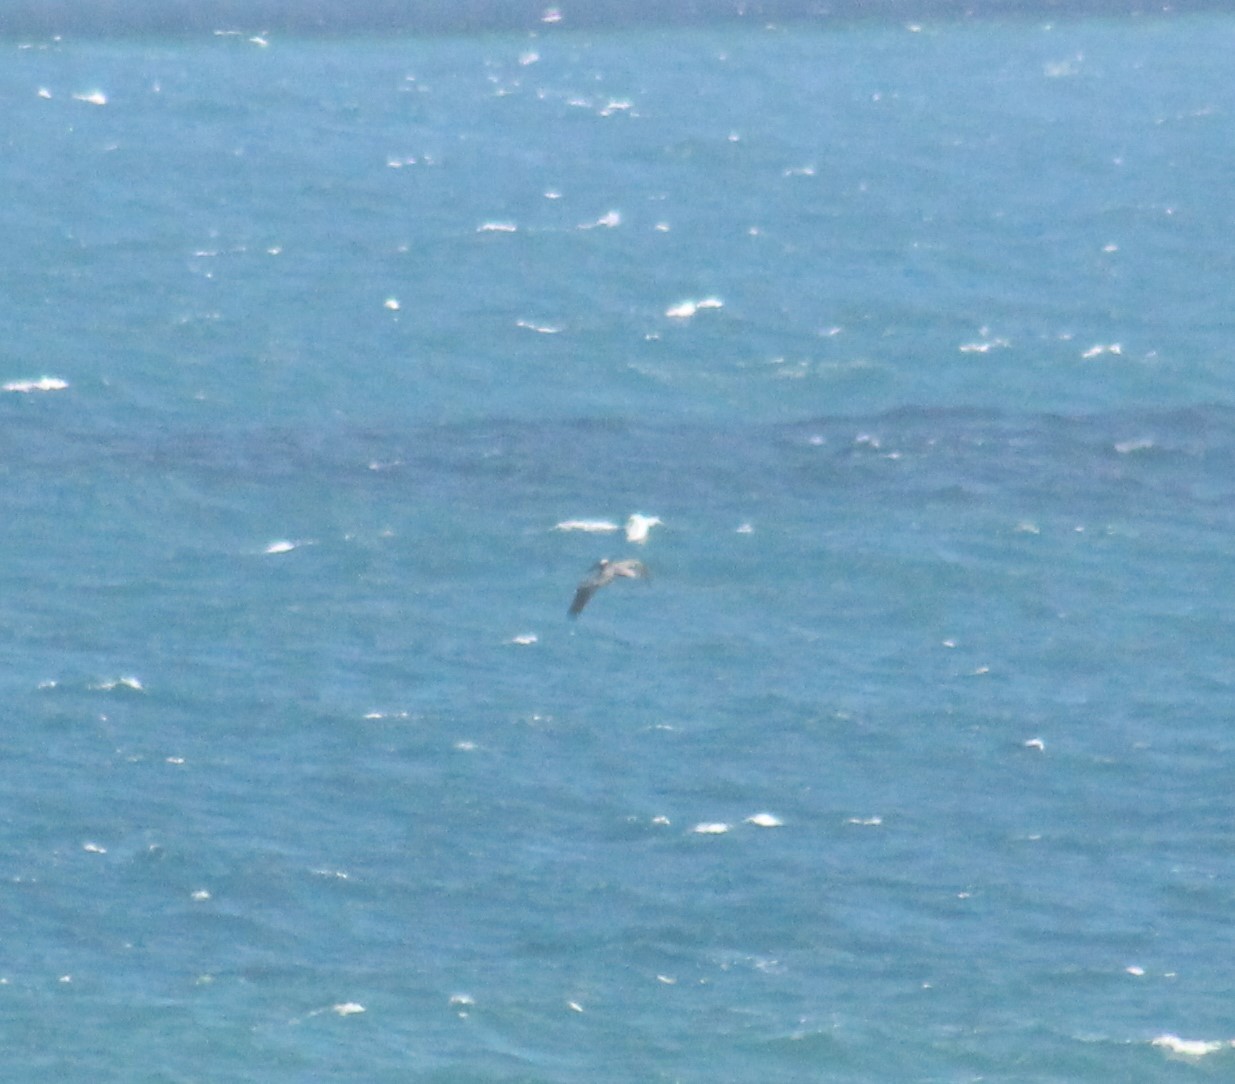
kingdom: Animalia
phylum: Chordata
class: Aves
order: Pelecaniformes
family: Pelecanidae
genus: Pelecanus
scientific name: Pelecanus occidentalis
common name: Brown pelican
